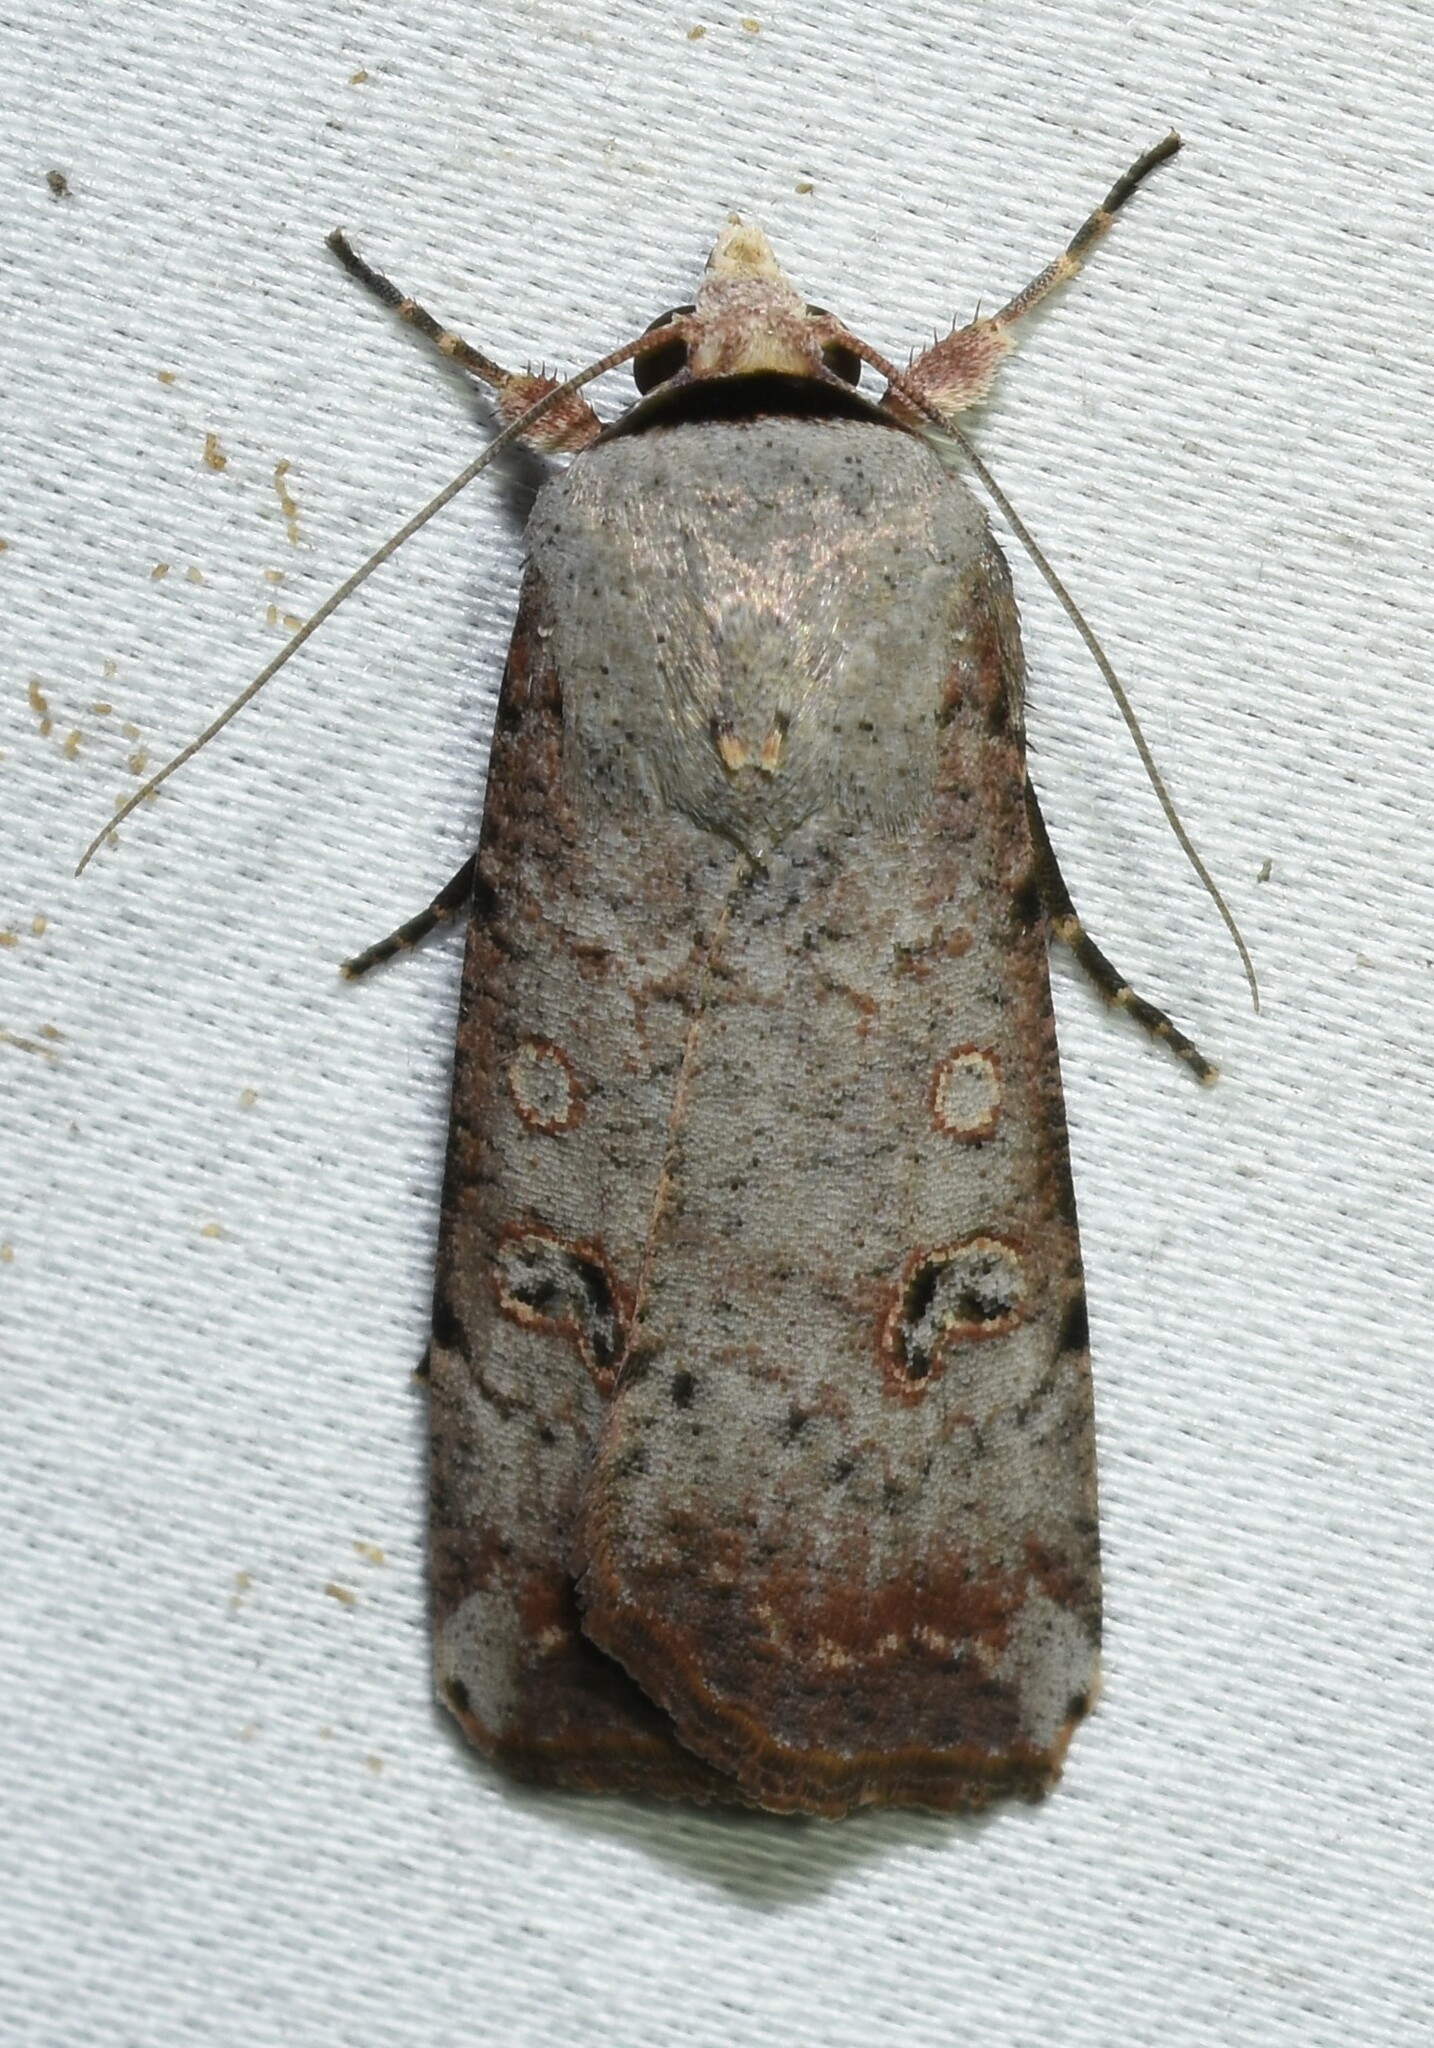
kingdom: Animalia
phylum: Arthropoda
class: Insecta
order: Lepidoptera
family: Noctuidae
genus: Anicla
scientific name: Anicla infecta
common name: Green cutworm
